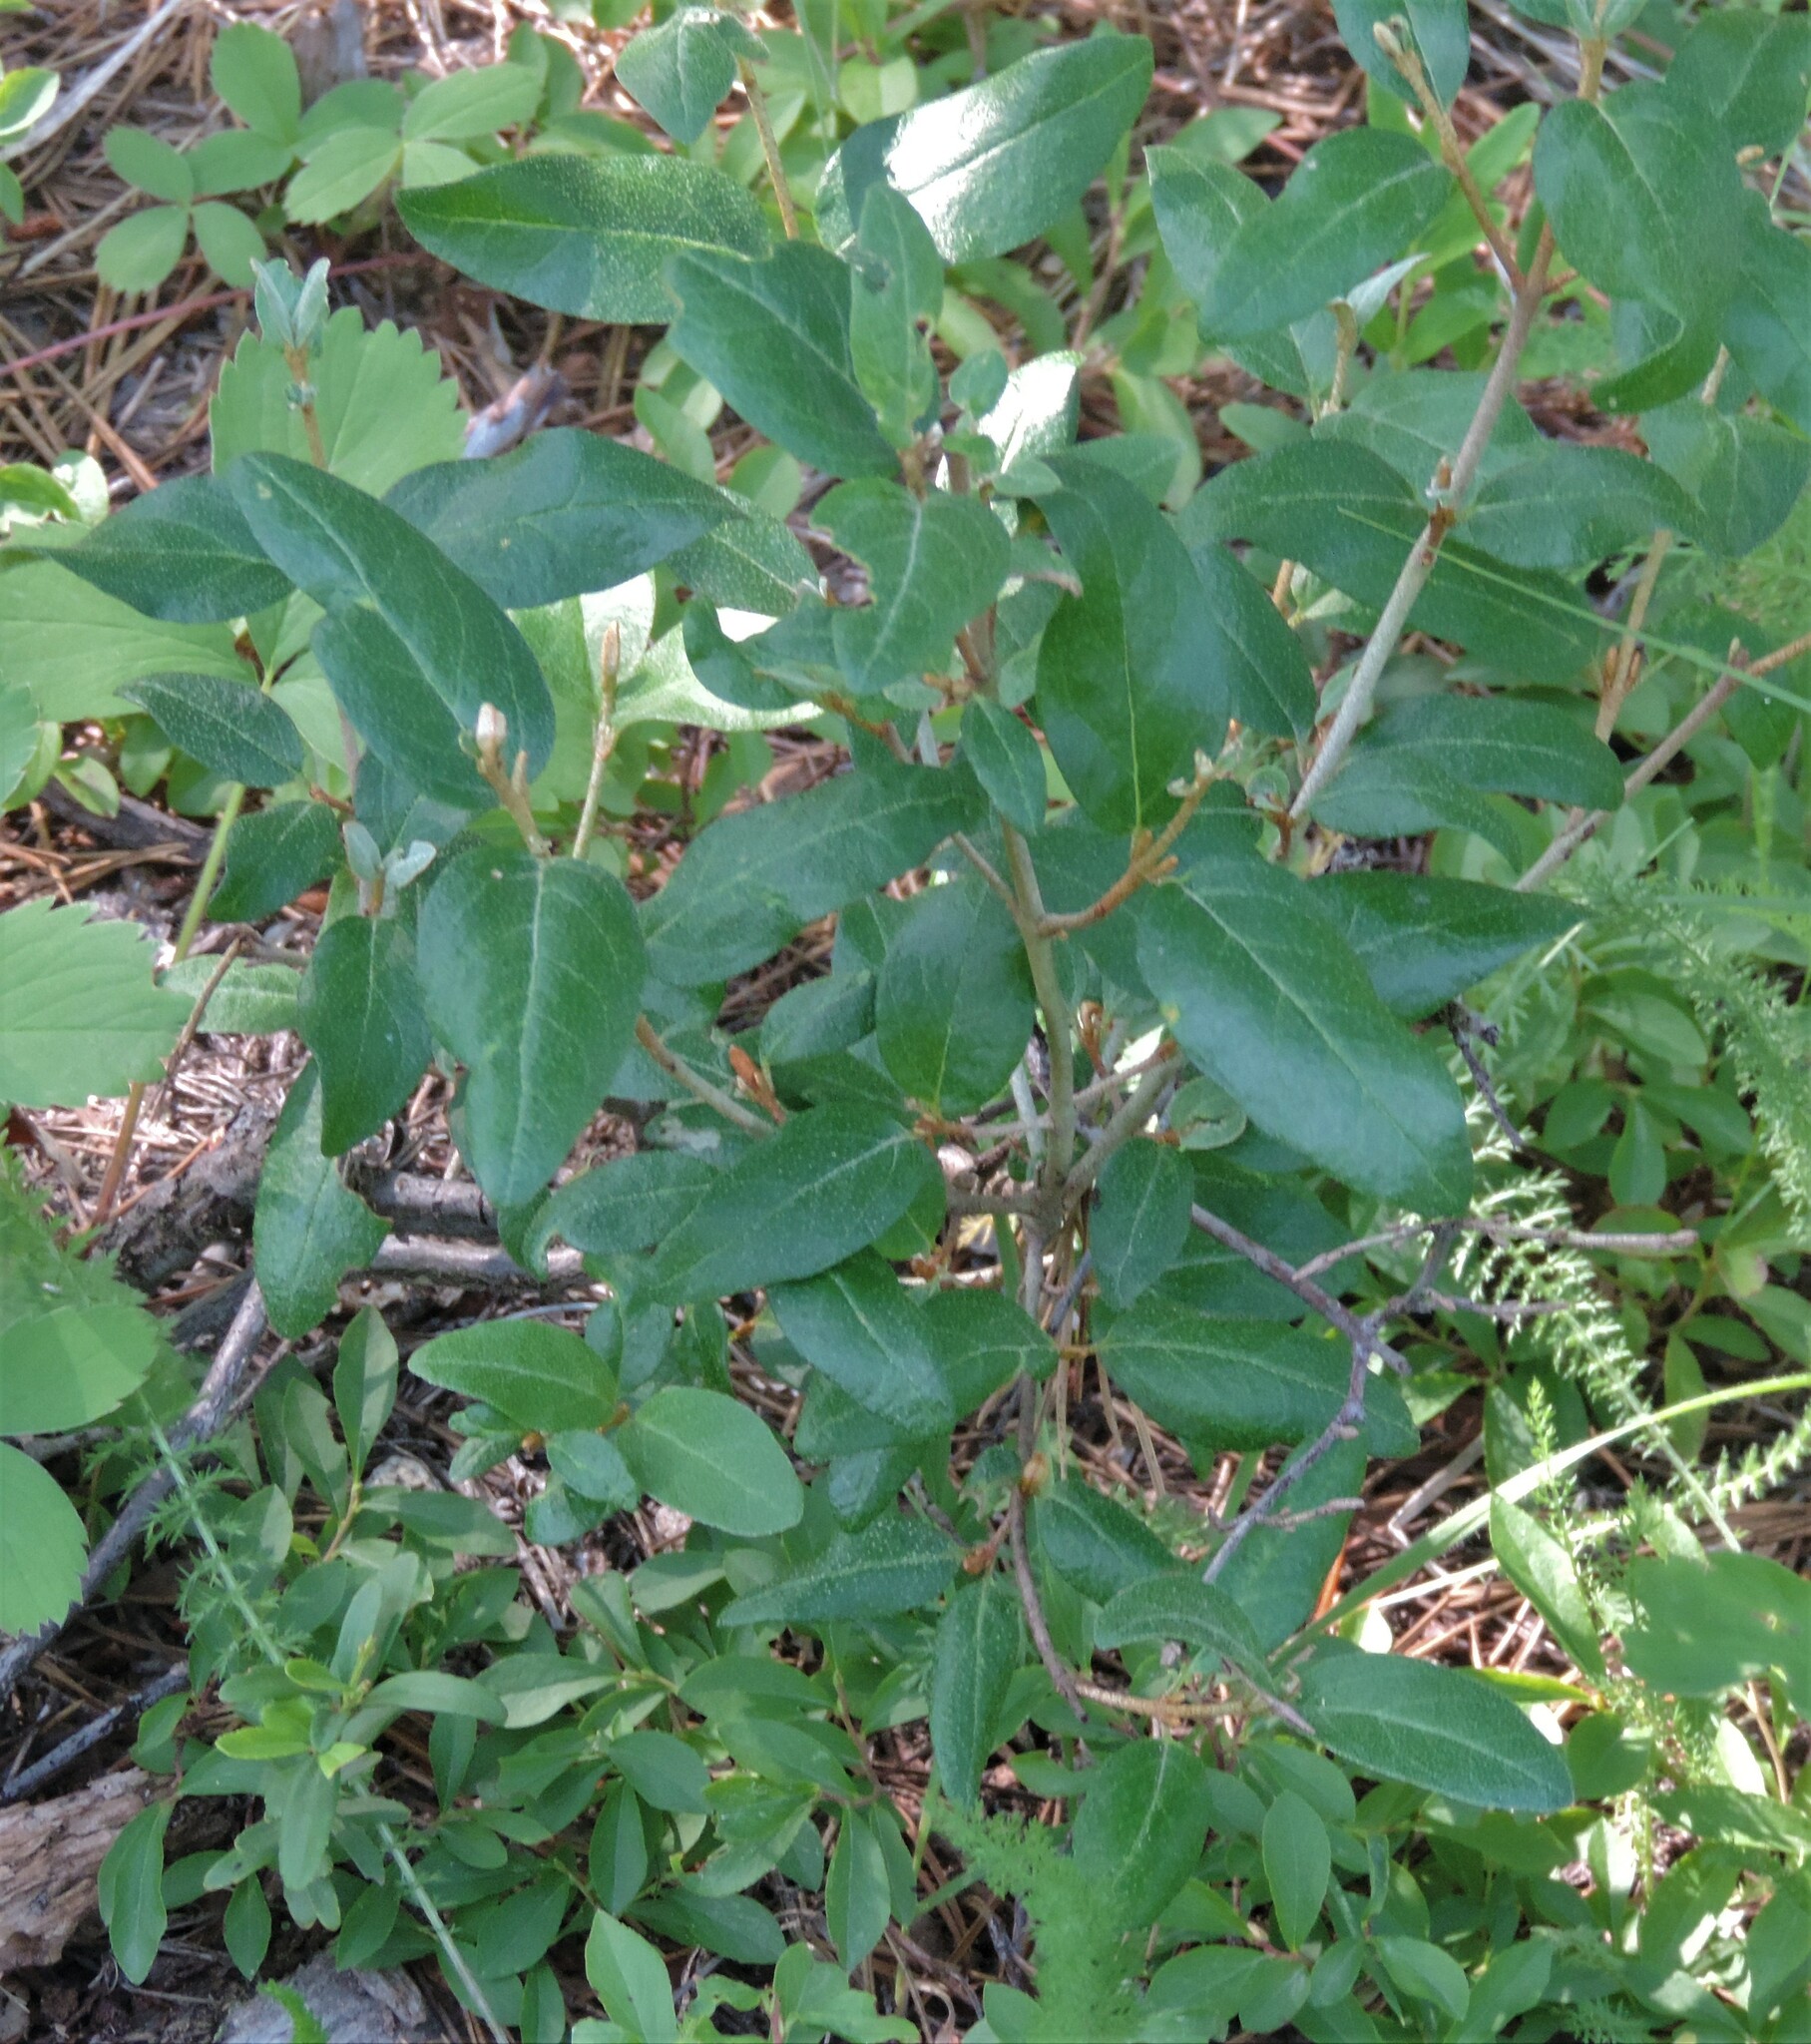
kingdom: Plantae
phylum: Tracheophyta
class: Magnoliopsida
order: Rosales
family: Elaeagnaceae
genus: Shepherdia
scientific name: Shepherdia canadensis
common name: Soapberry
